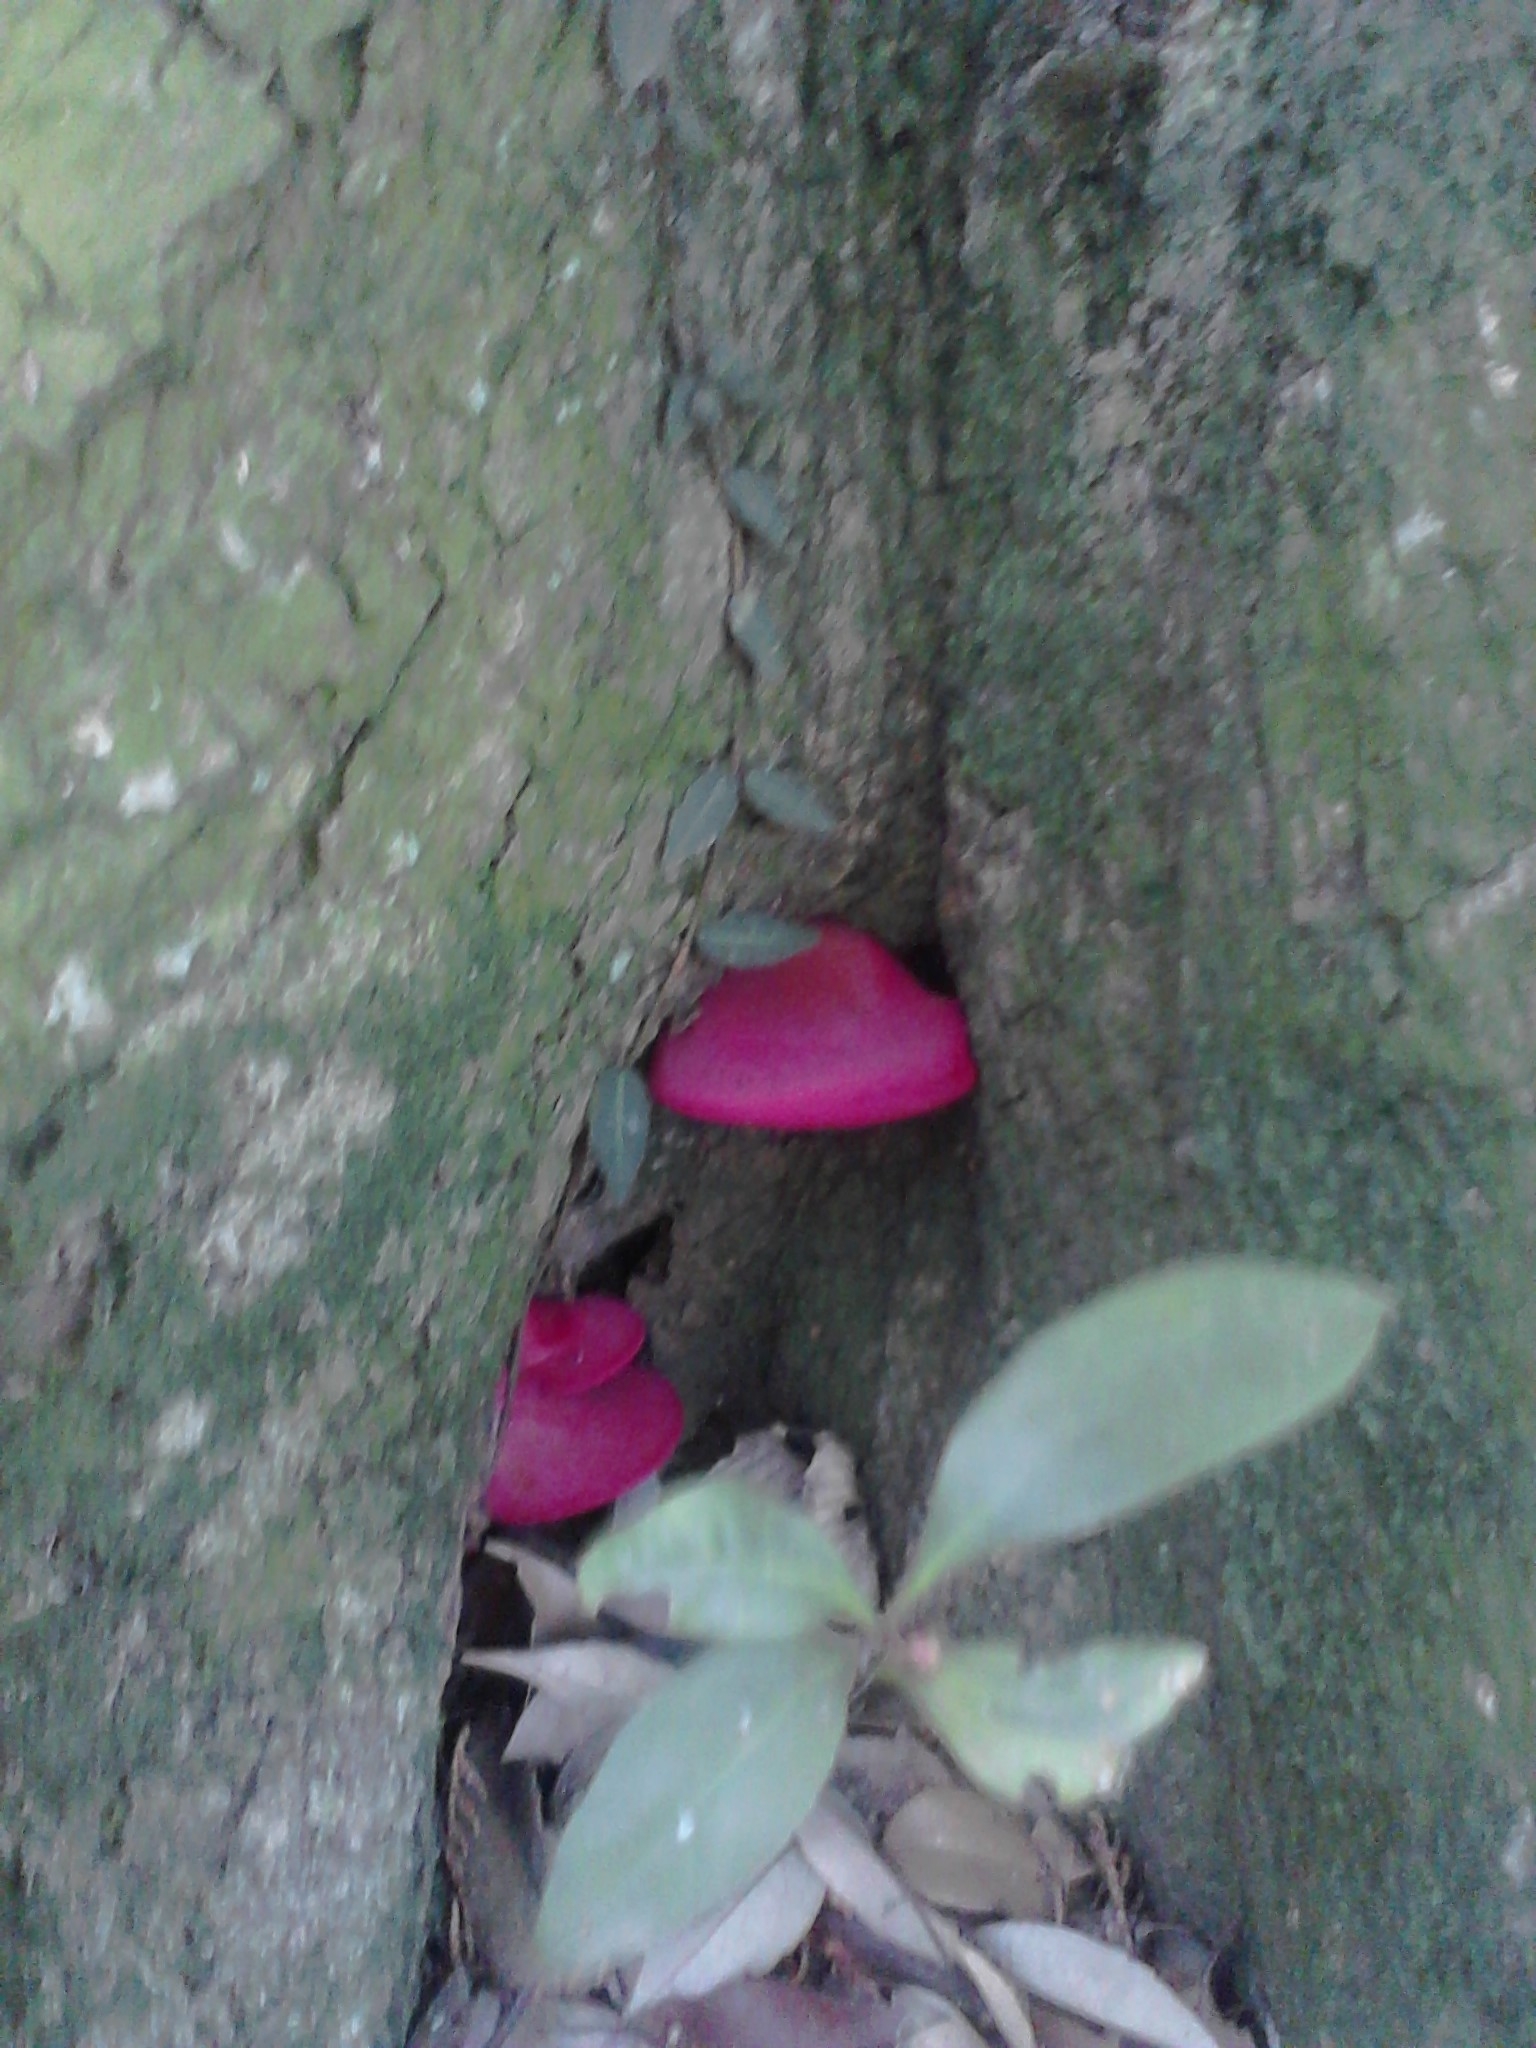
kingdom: Fungi
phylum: Basidiomycota
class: Agaricomycetes
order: Agaricales
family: Fistulinaceae
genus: Fistulina
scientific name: Fistulina hepatica
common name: Beef-steak fungus
